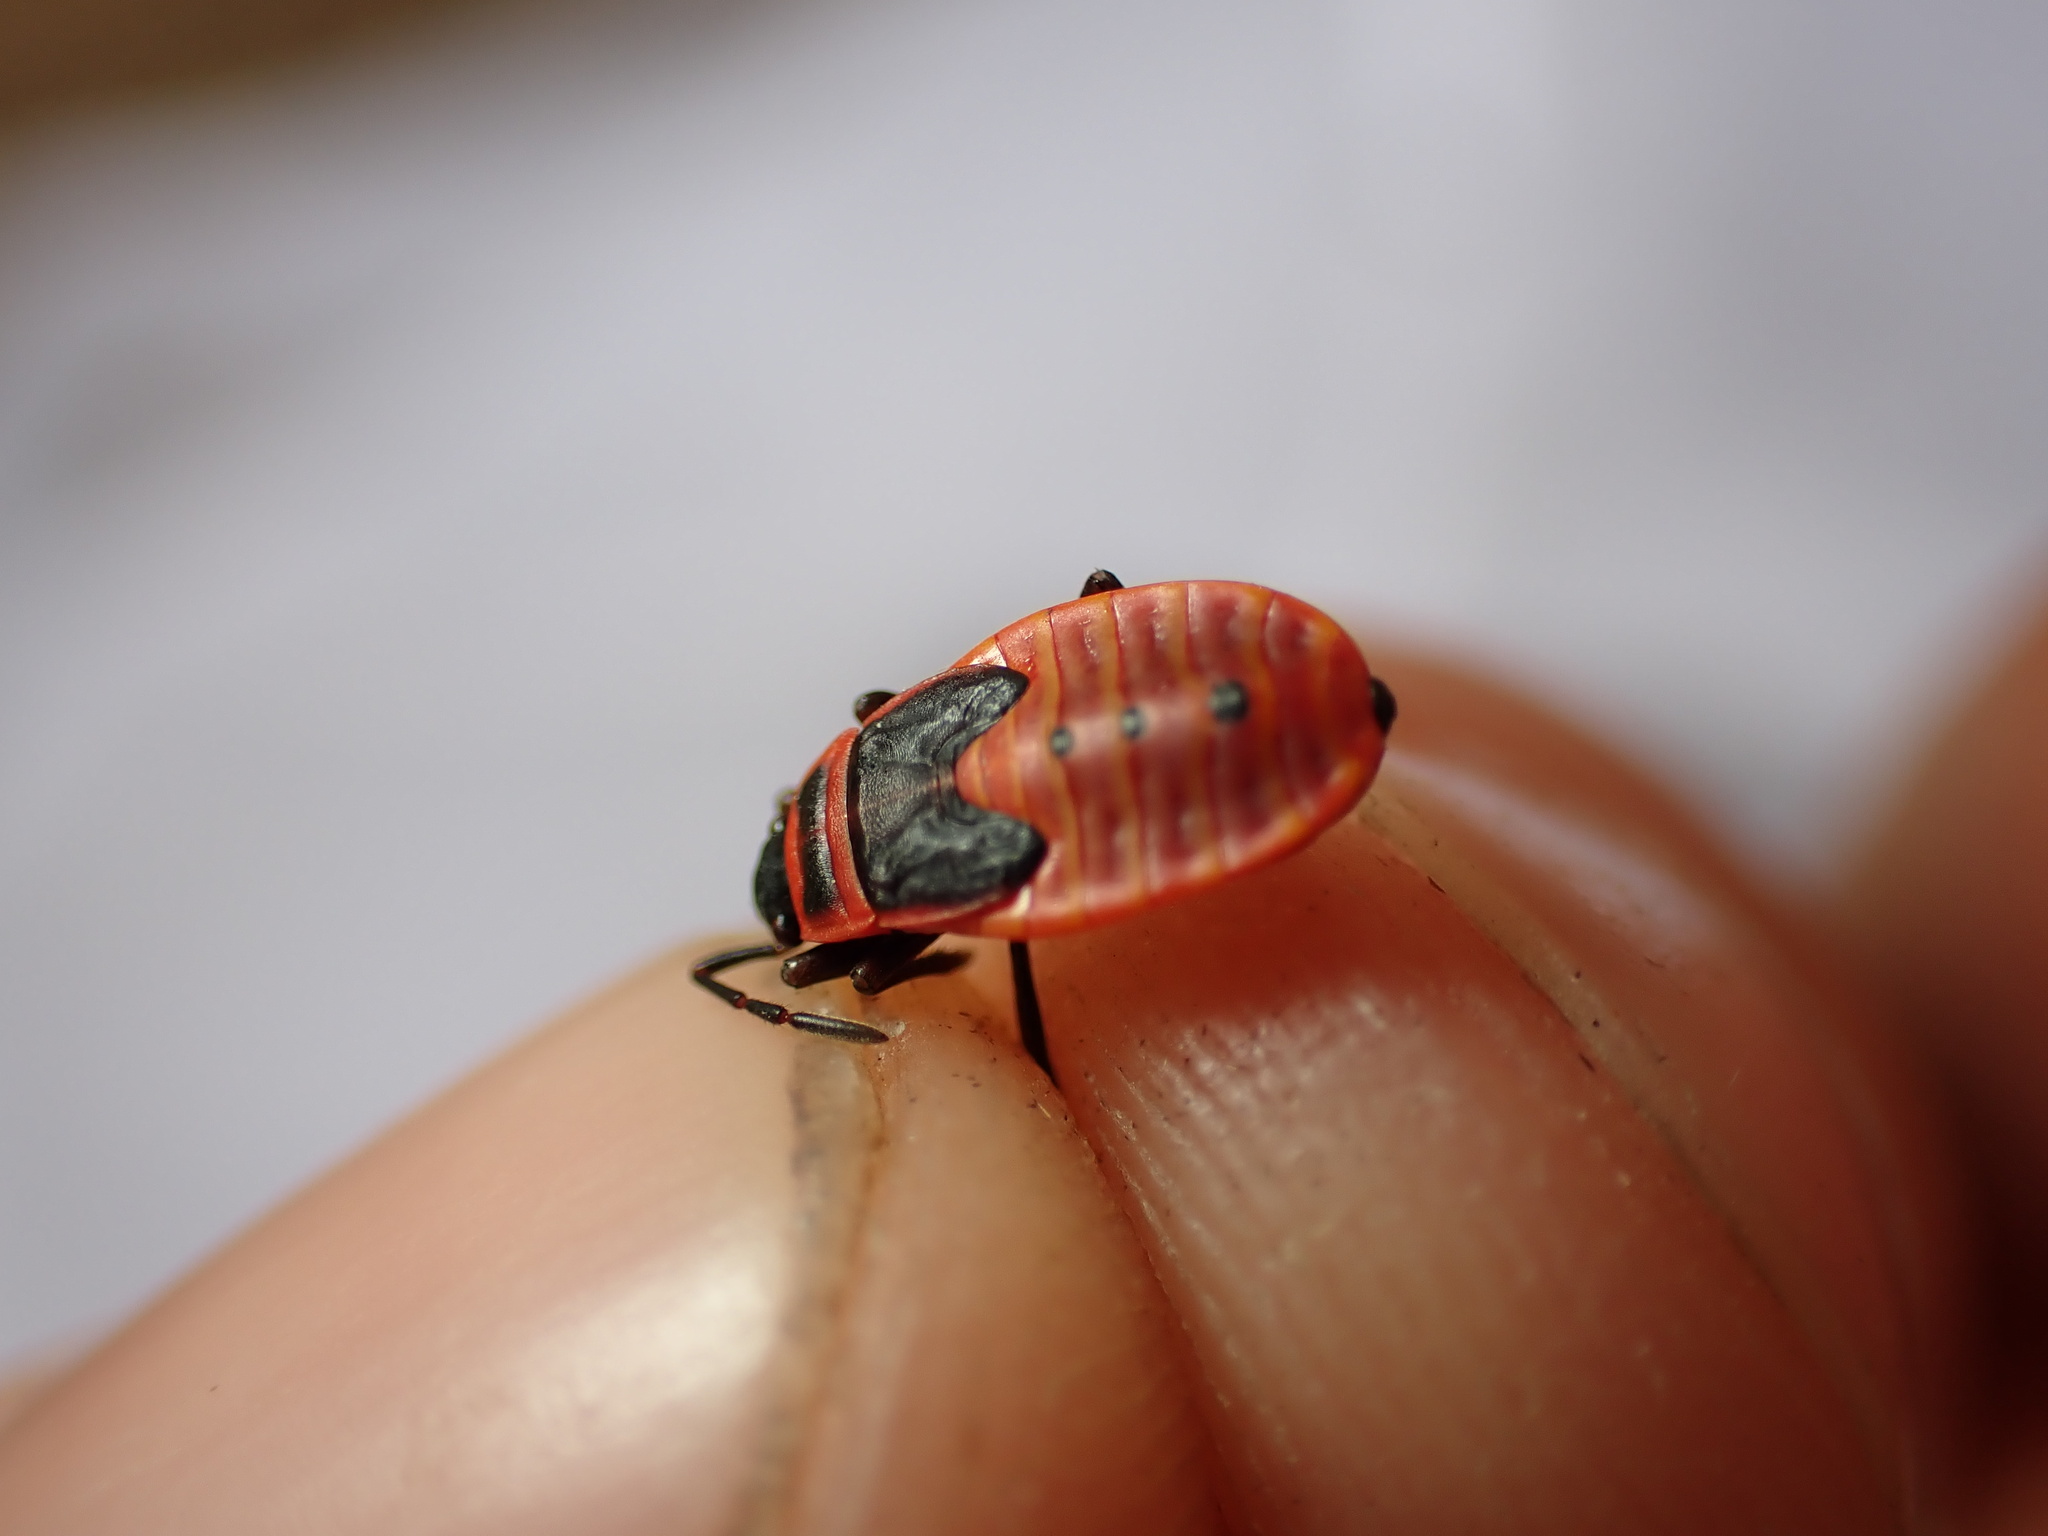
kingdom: Animalia
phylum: Arthropoda
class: Insecta
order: Hemiptera
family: Pyrrhocoridae
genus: Pyrrhocoris
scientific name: Pyrrhocoris apterus
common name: Firebug
